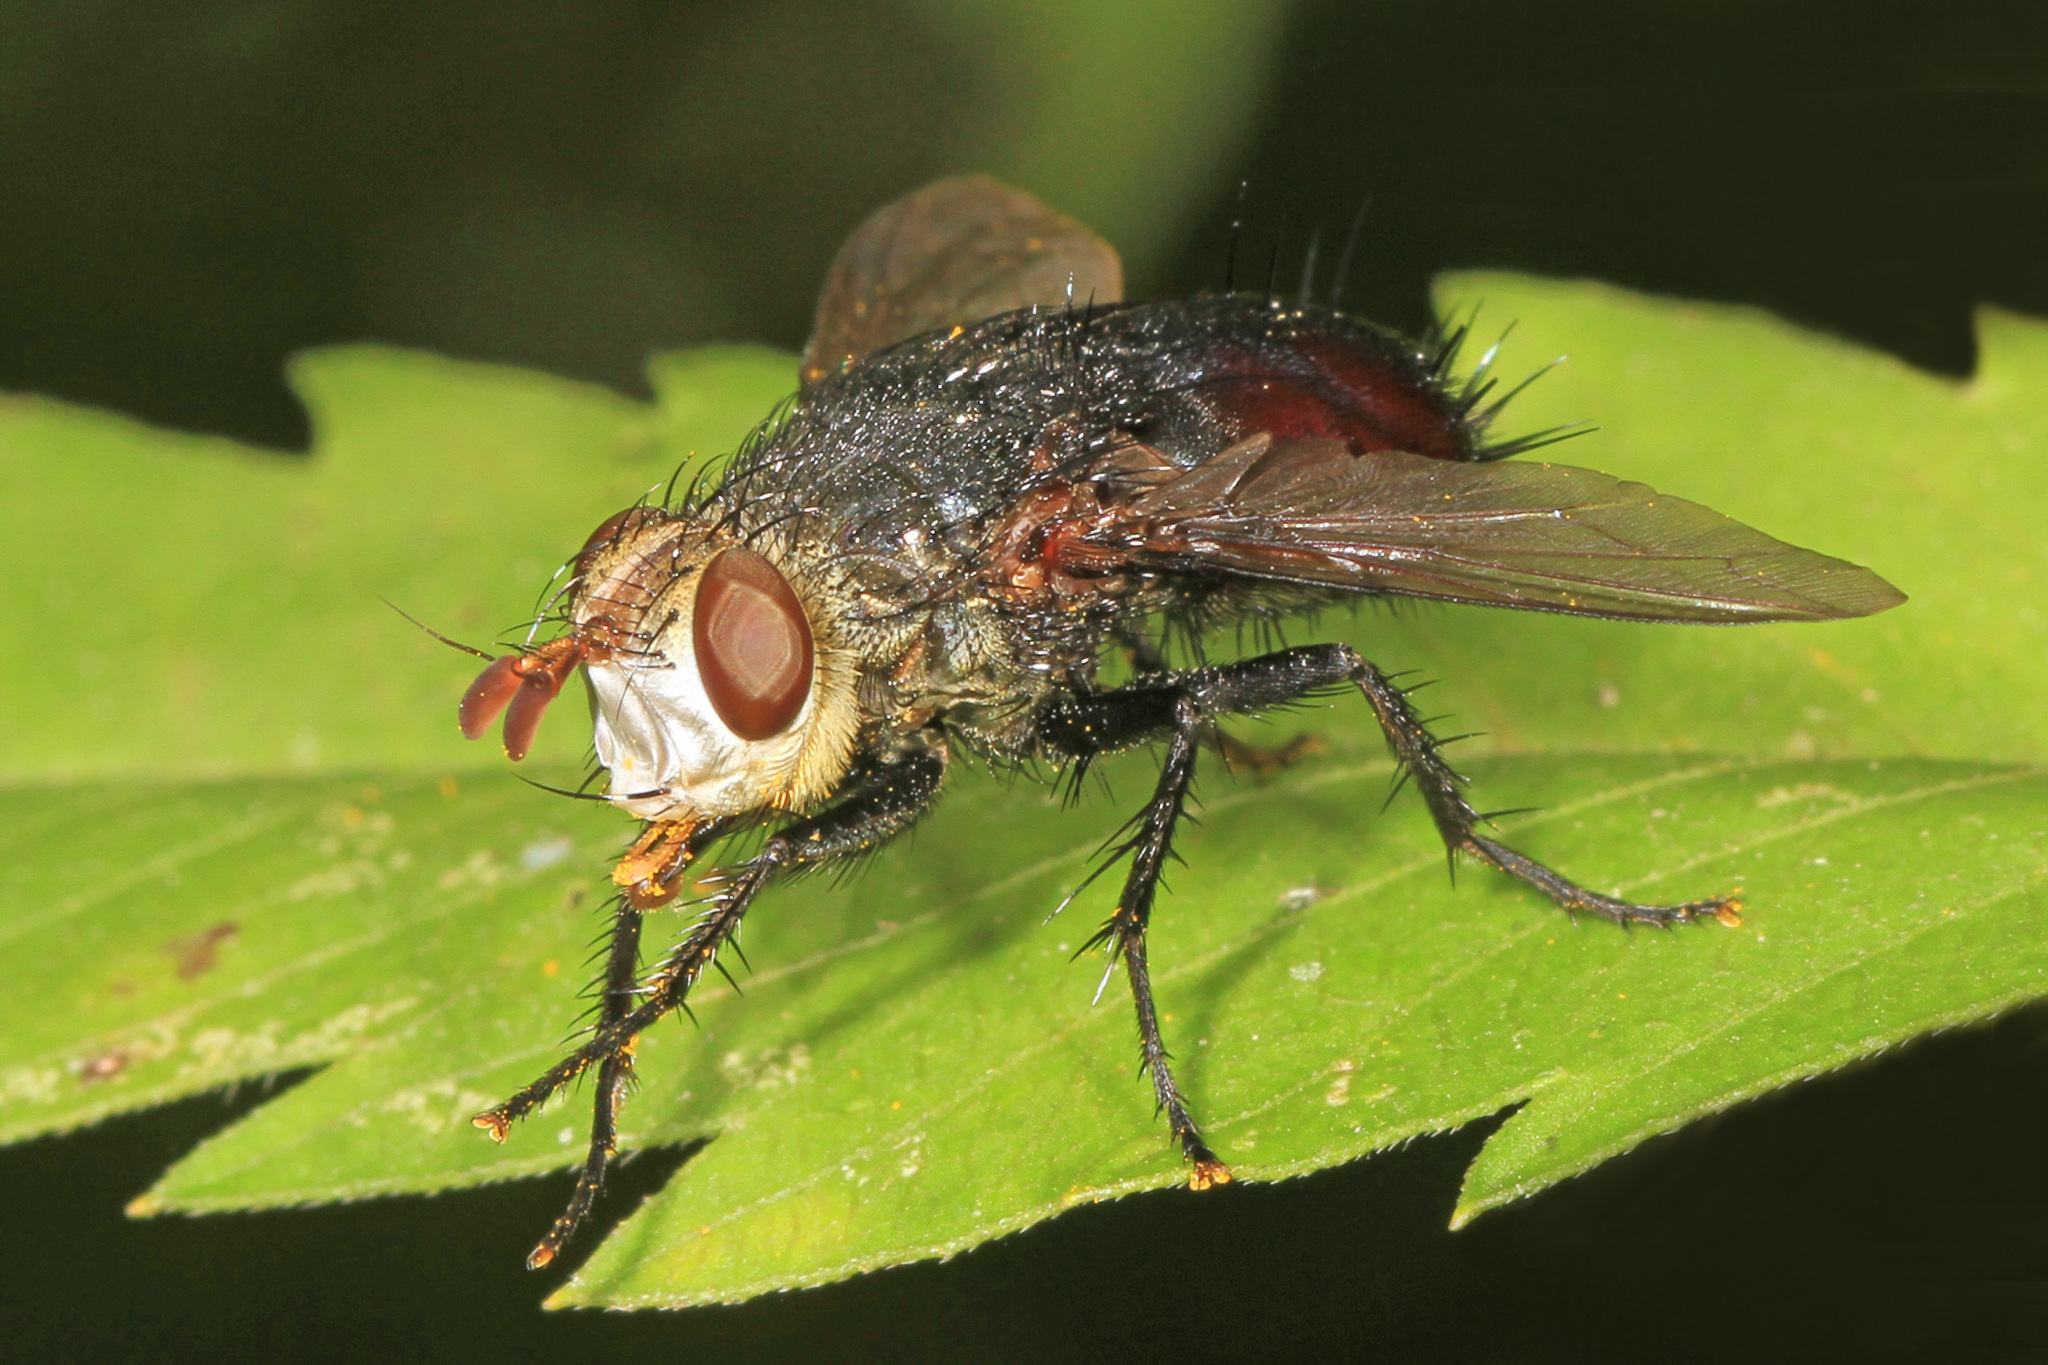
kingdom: Animalia
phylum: Arthropoda
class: Insecta
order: Diptera
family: Tachinidae
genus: Archytas
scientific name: Archytas metallicus
